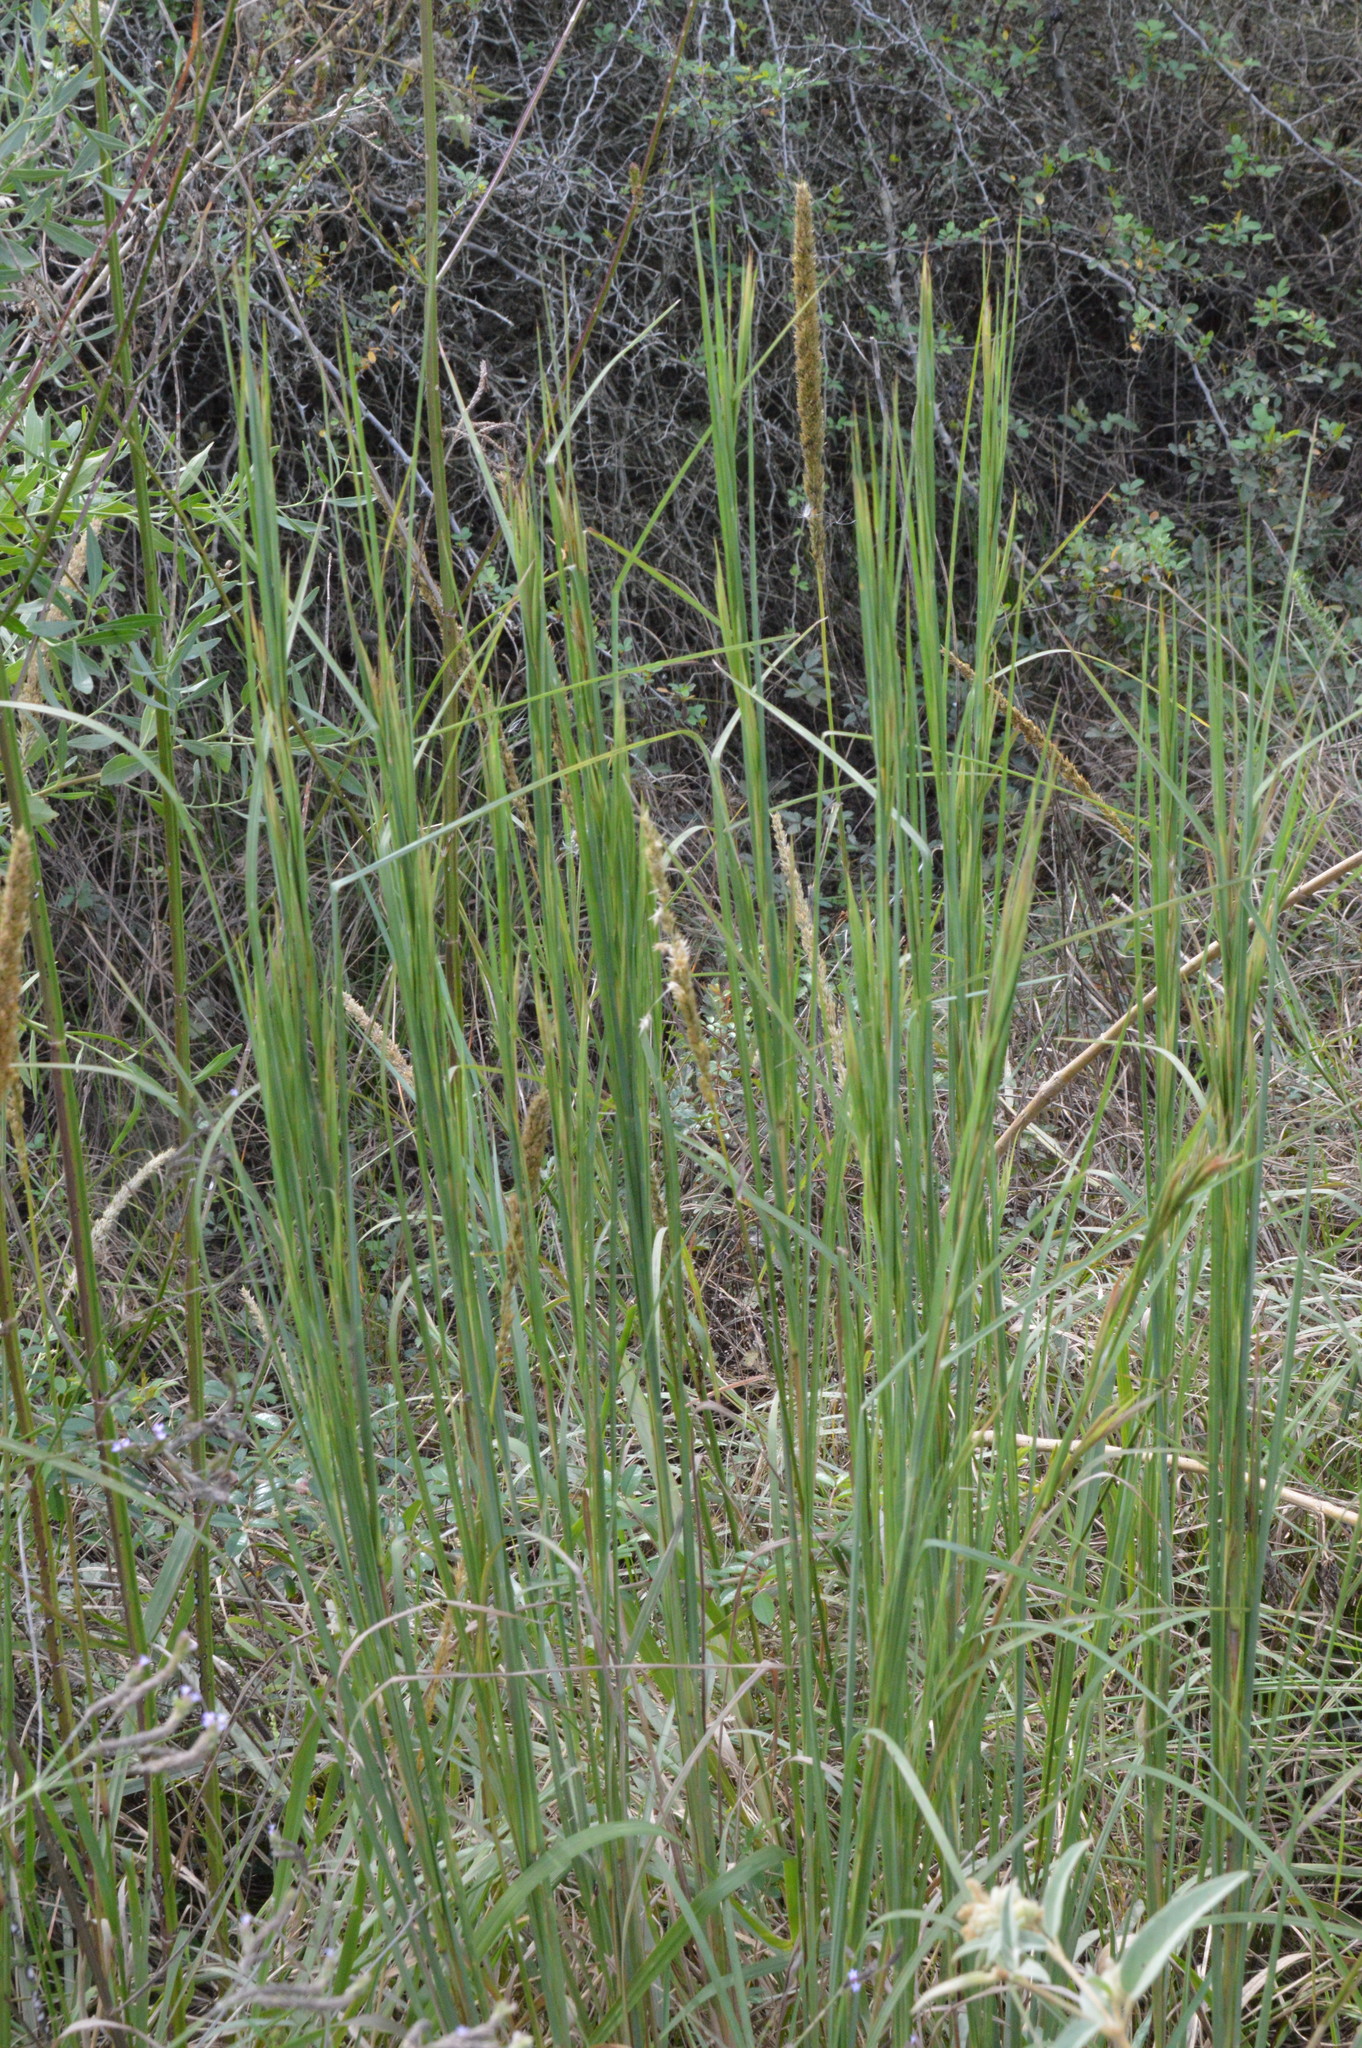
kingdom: Plantae
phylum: Tracheophyta
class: Liliopsida
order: Poales
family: Poaceae
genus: Andropogon
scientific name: Andropogon virginicus
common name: Broomsedge bluestem
